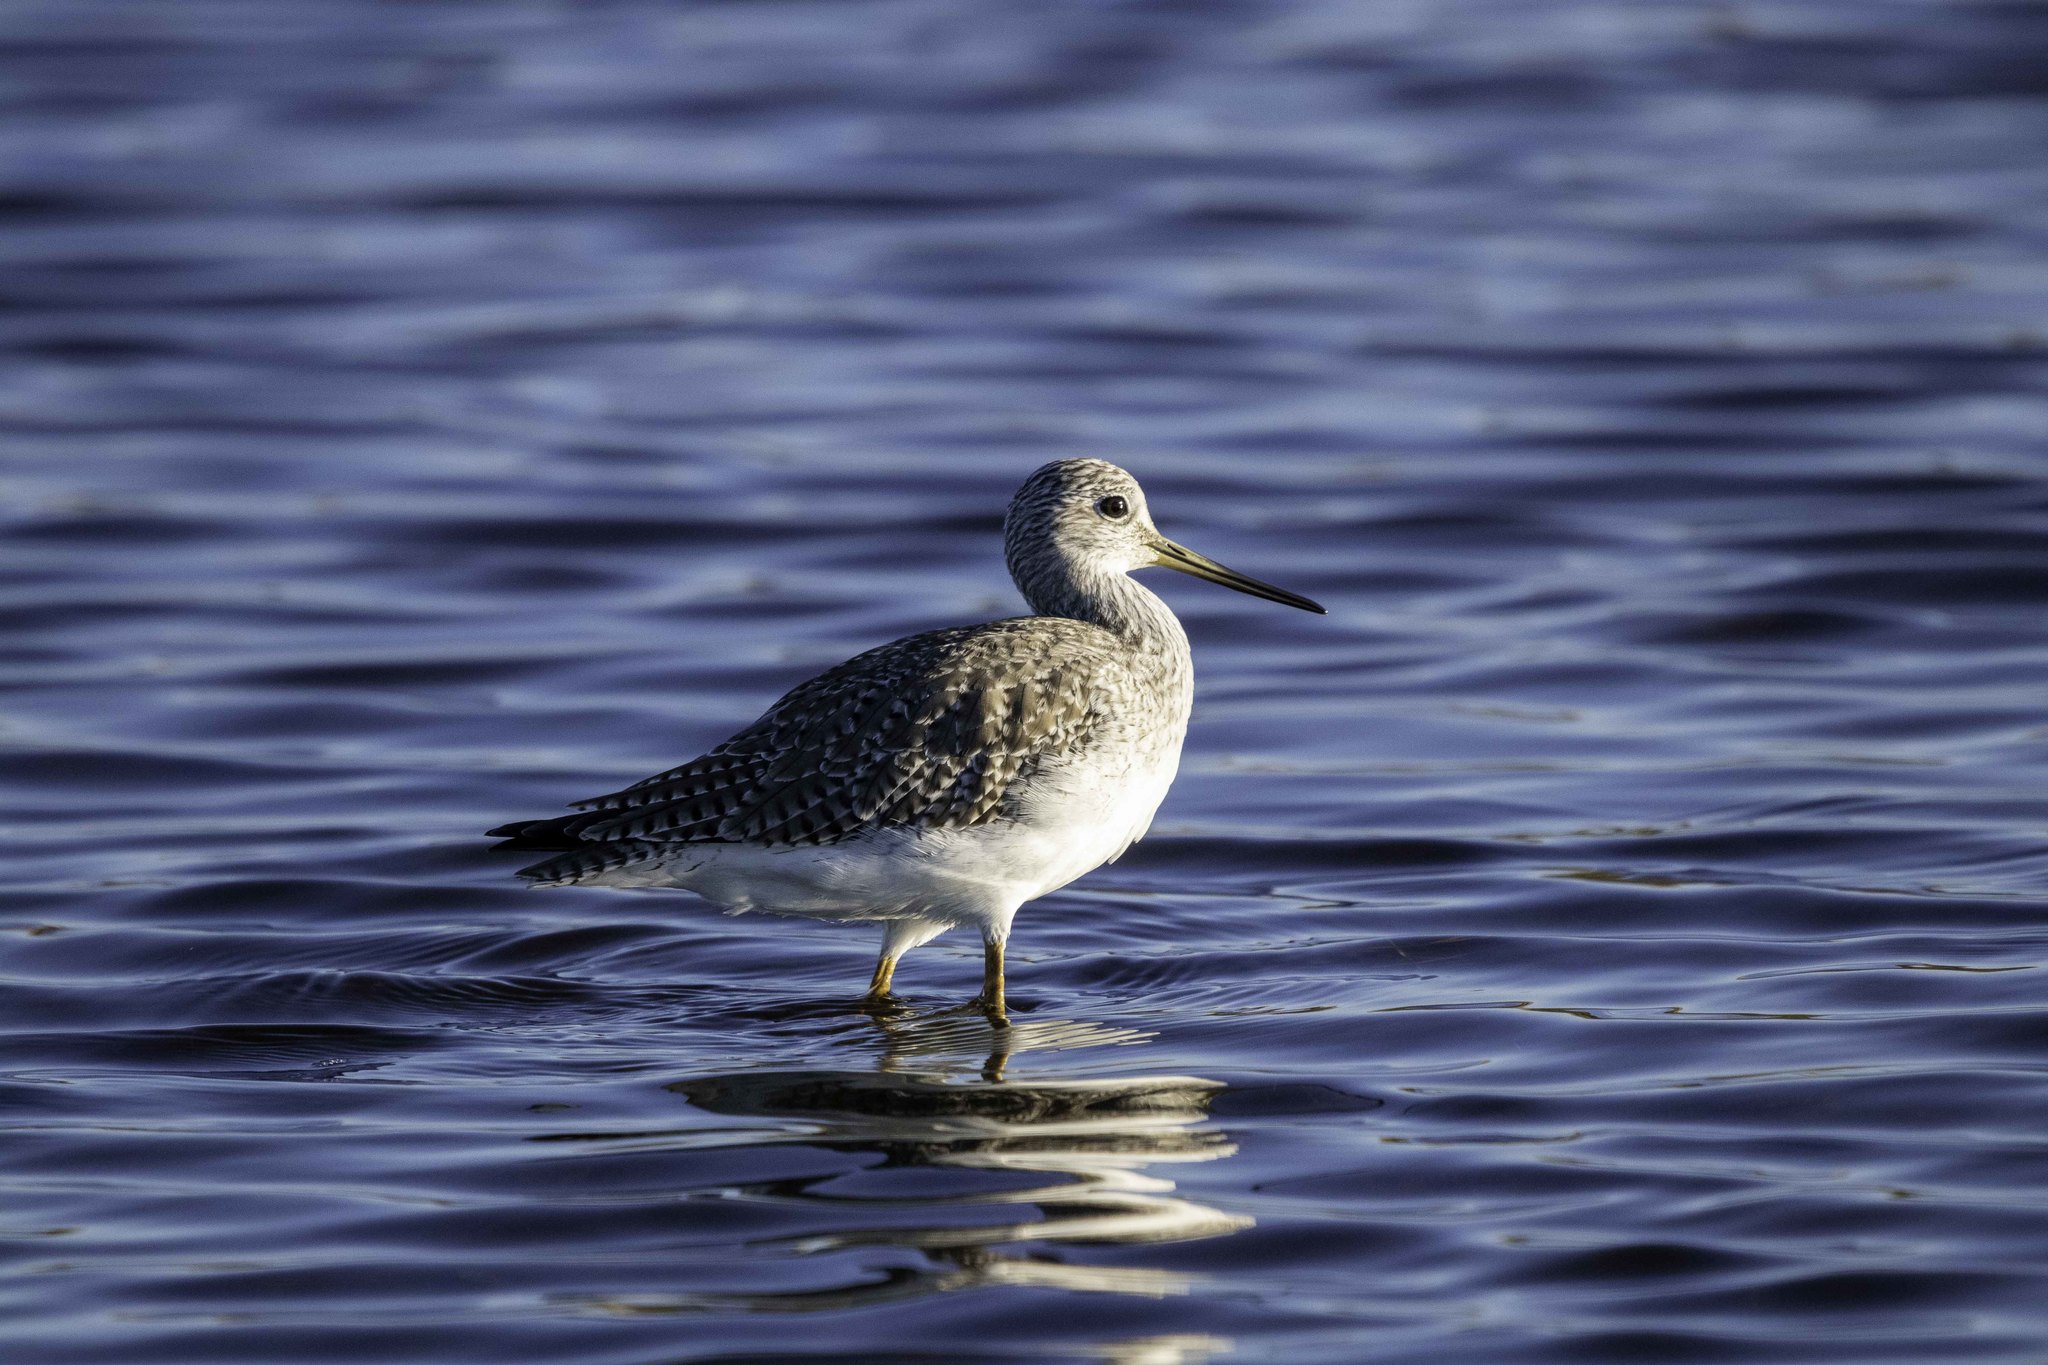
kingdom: Animalia
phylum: Chordata
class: Aves
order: Charadriiformes
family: Scolopacidae
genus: Tringa
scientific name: Tringa melanoleuca
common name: Greater yellowlegs
